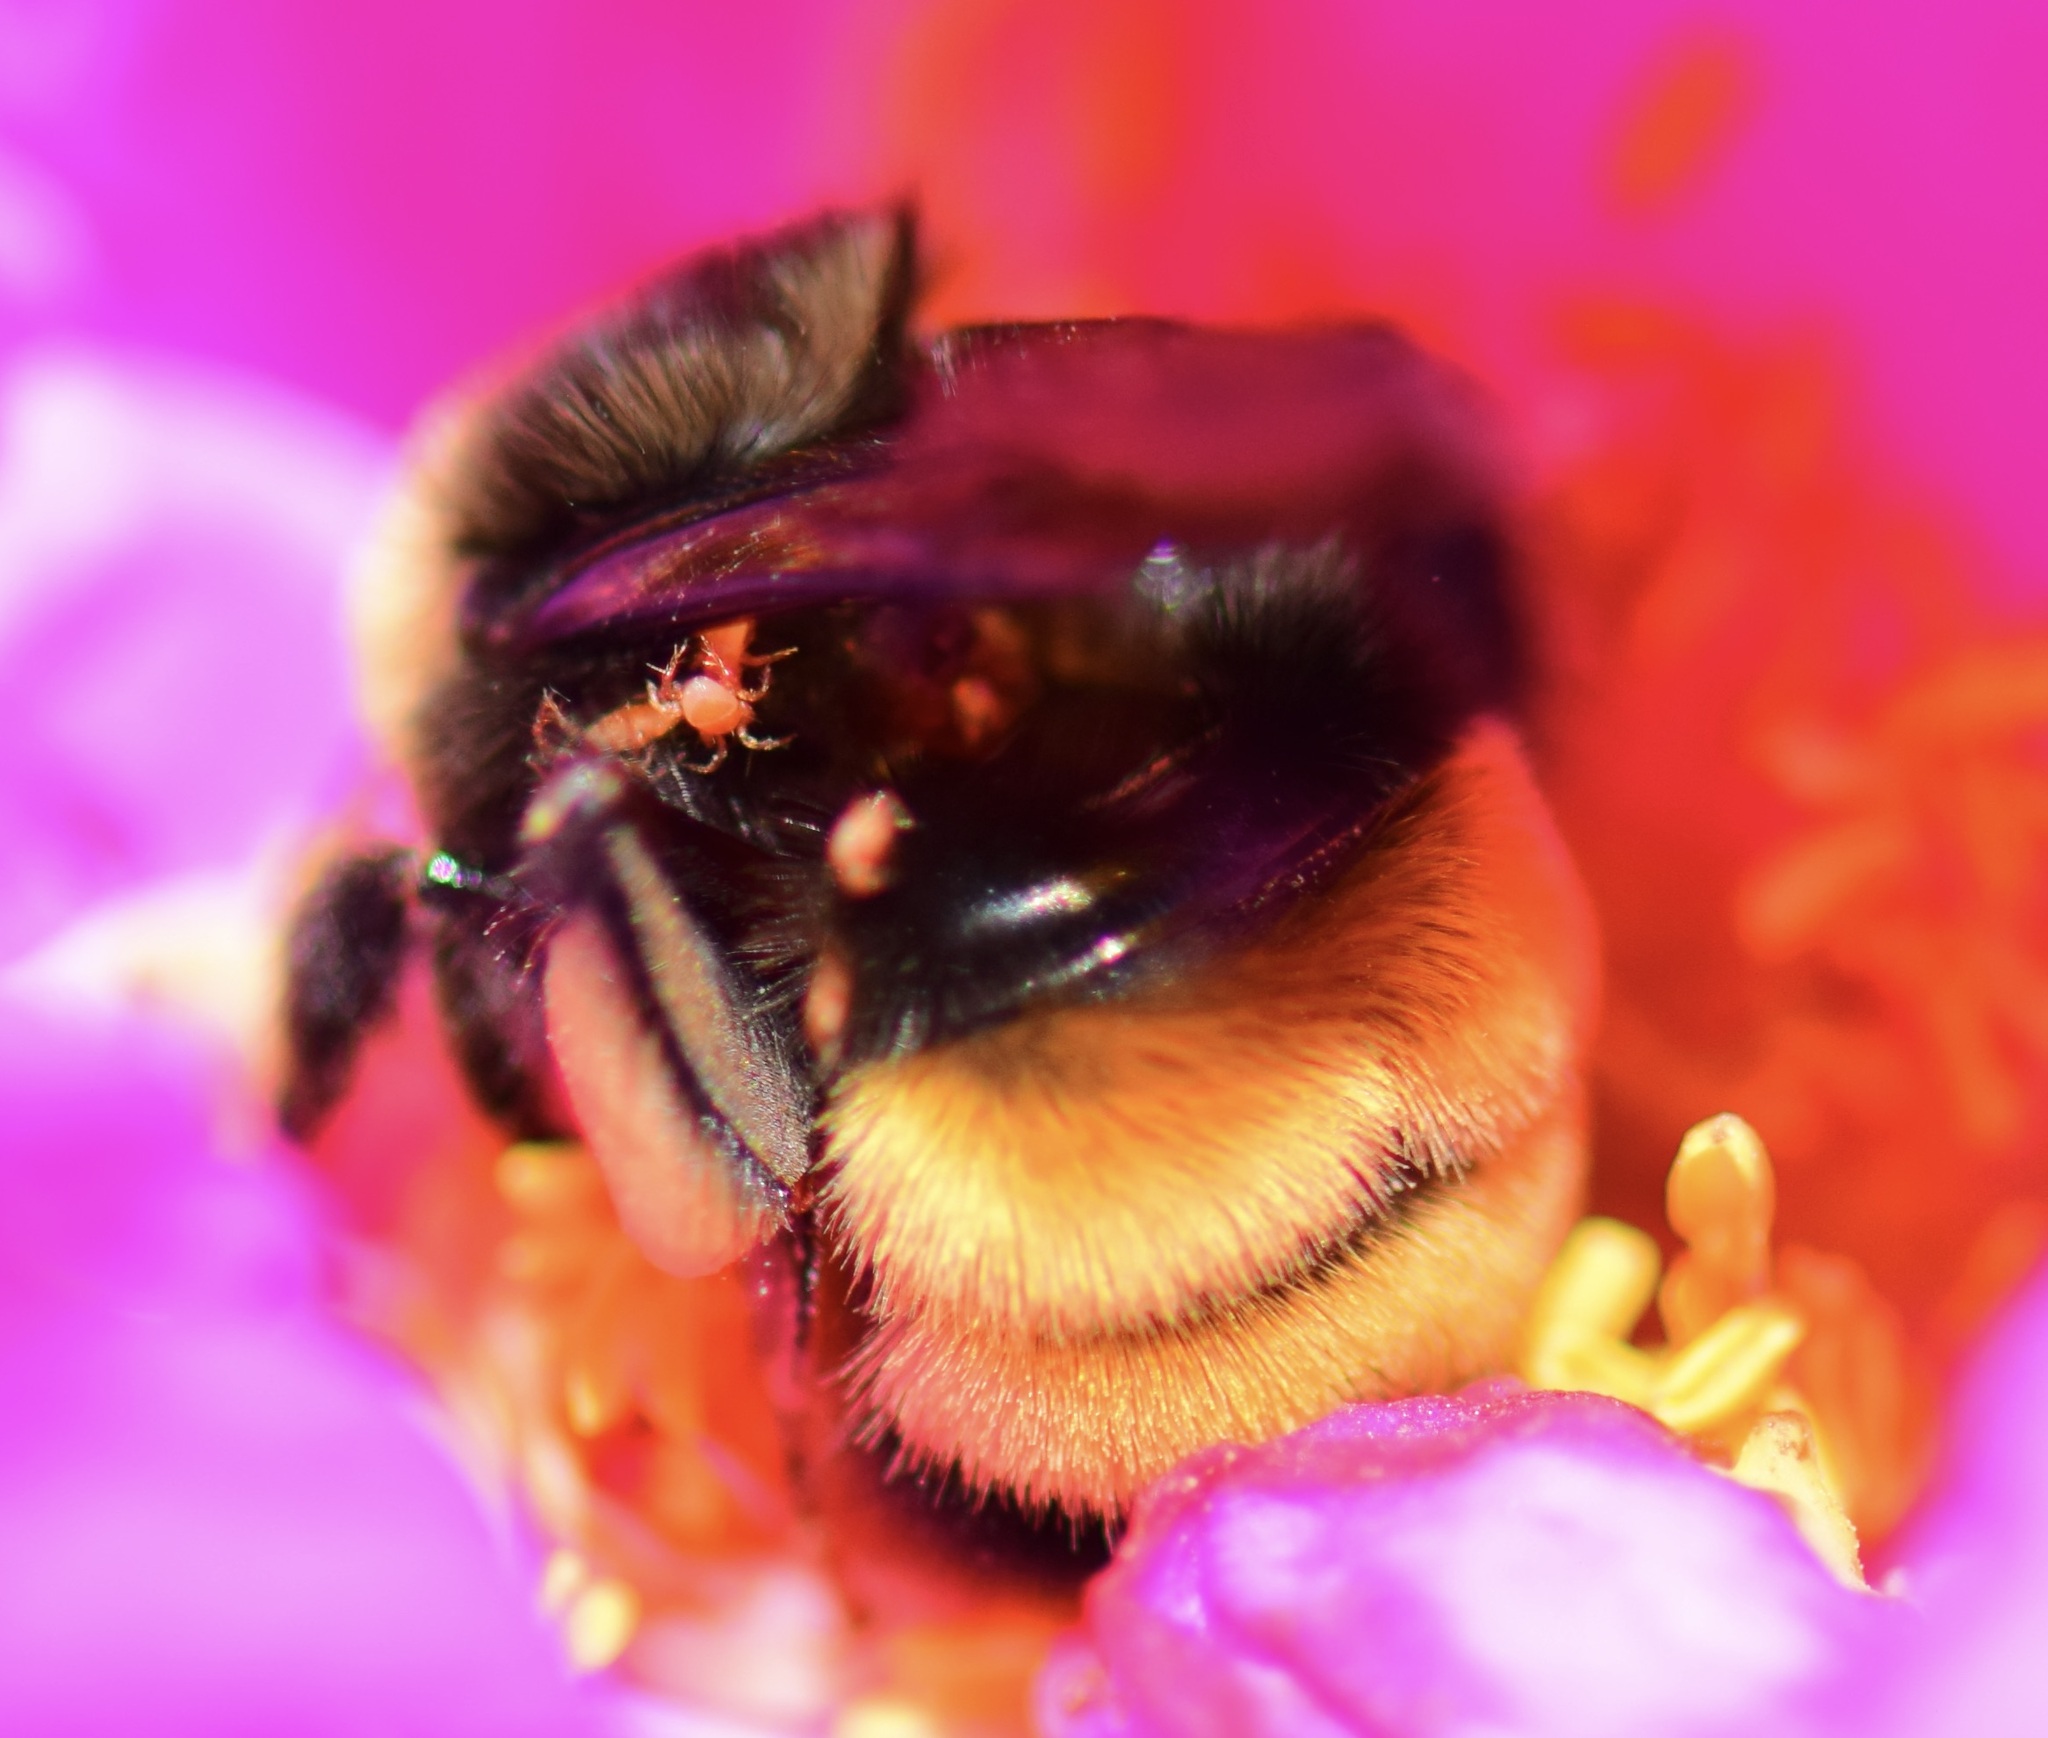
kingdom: Animalia
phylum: Arthropoda
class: Insecta
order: Hymenoptera
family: Apidae
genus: Bombus
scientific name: Bombus terricola
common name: Yellow-banded bumble bee
